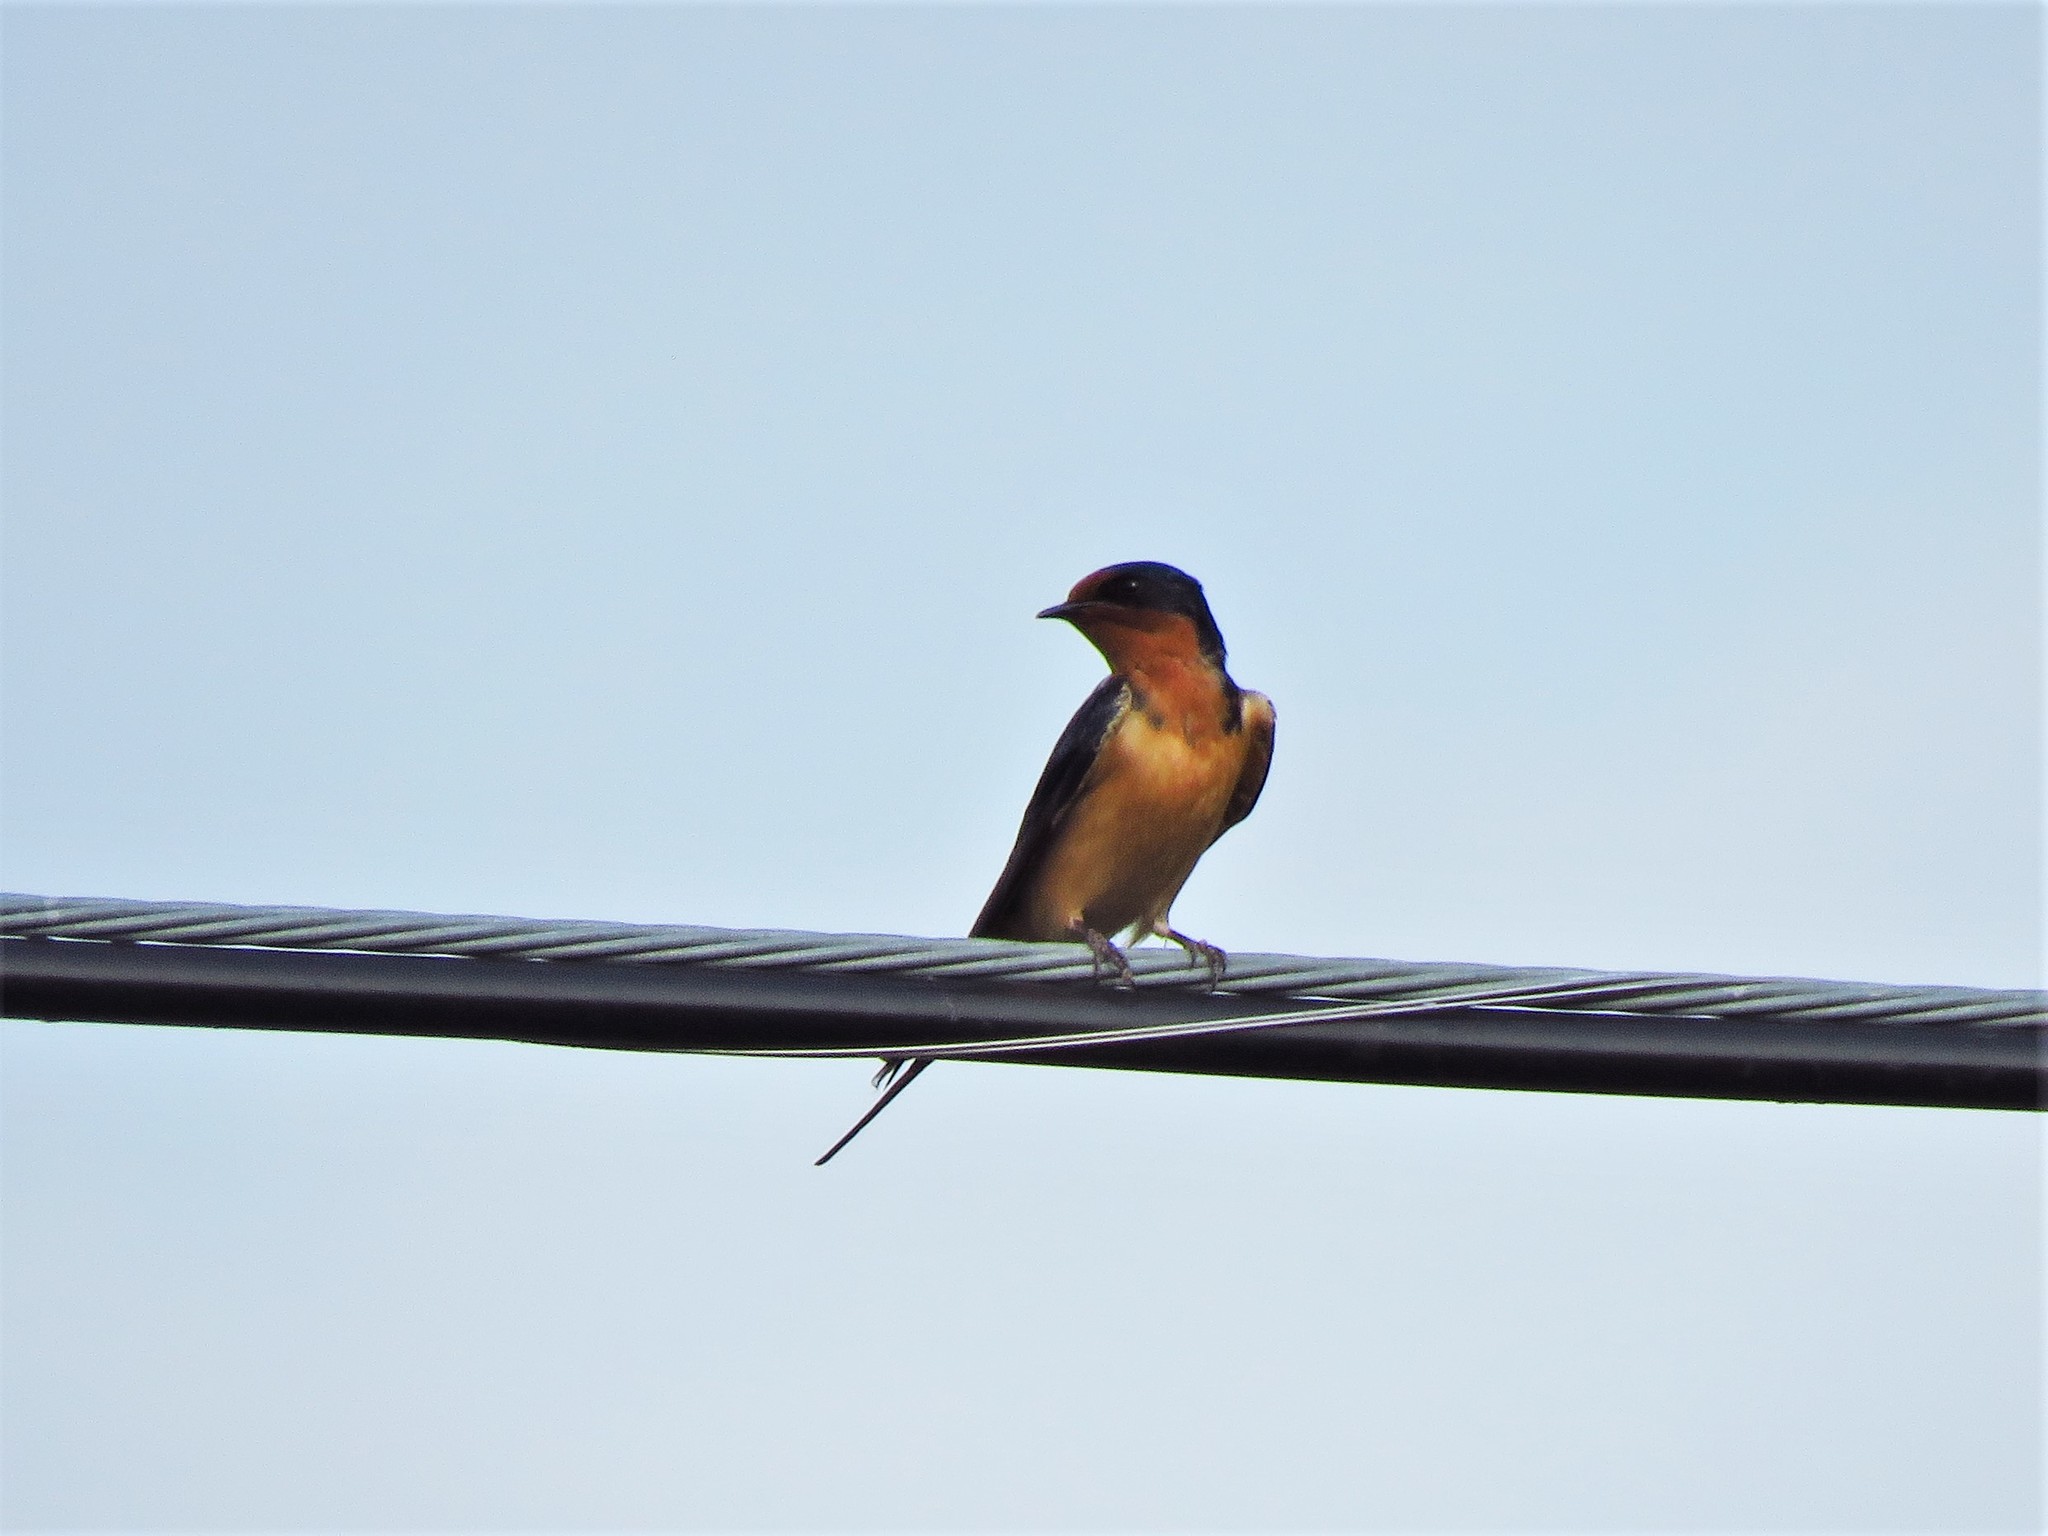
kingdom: Animalia
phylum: Chordata
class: Aves
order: Passeriformes
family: Hirundinidae
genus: Hirundo
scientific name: Hirundo rustica
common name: Barn swallow
